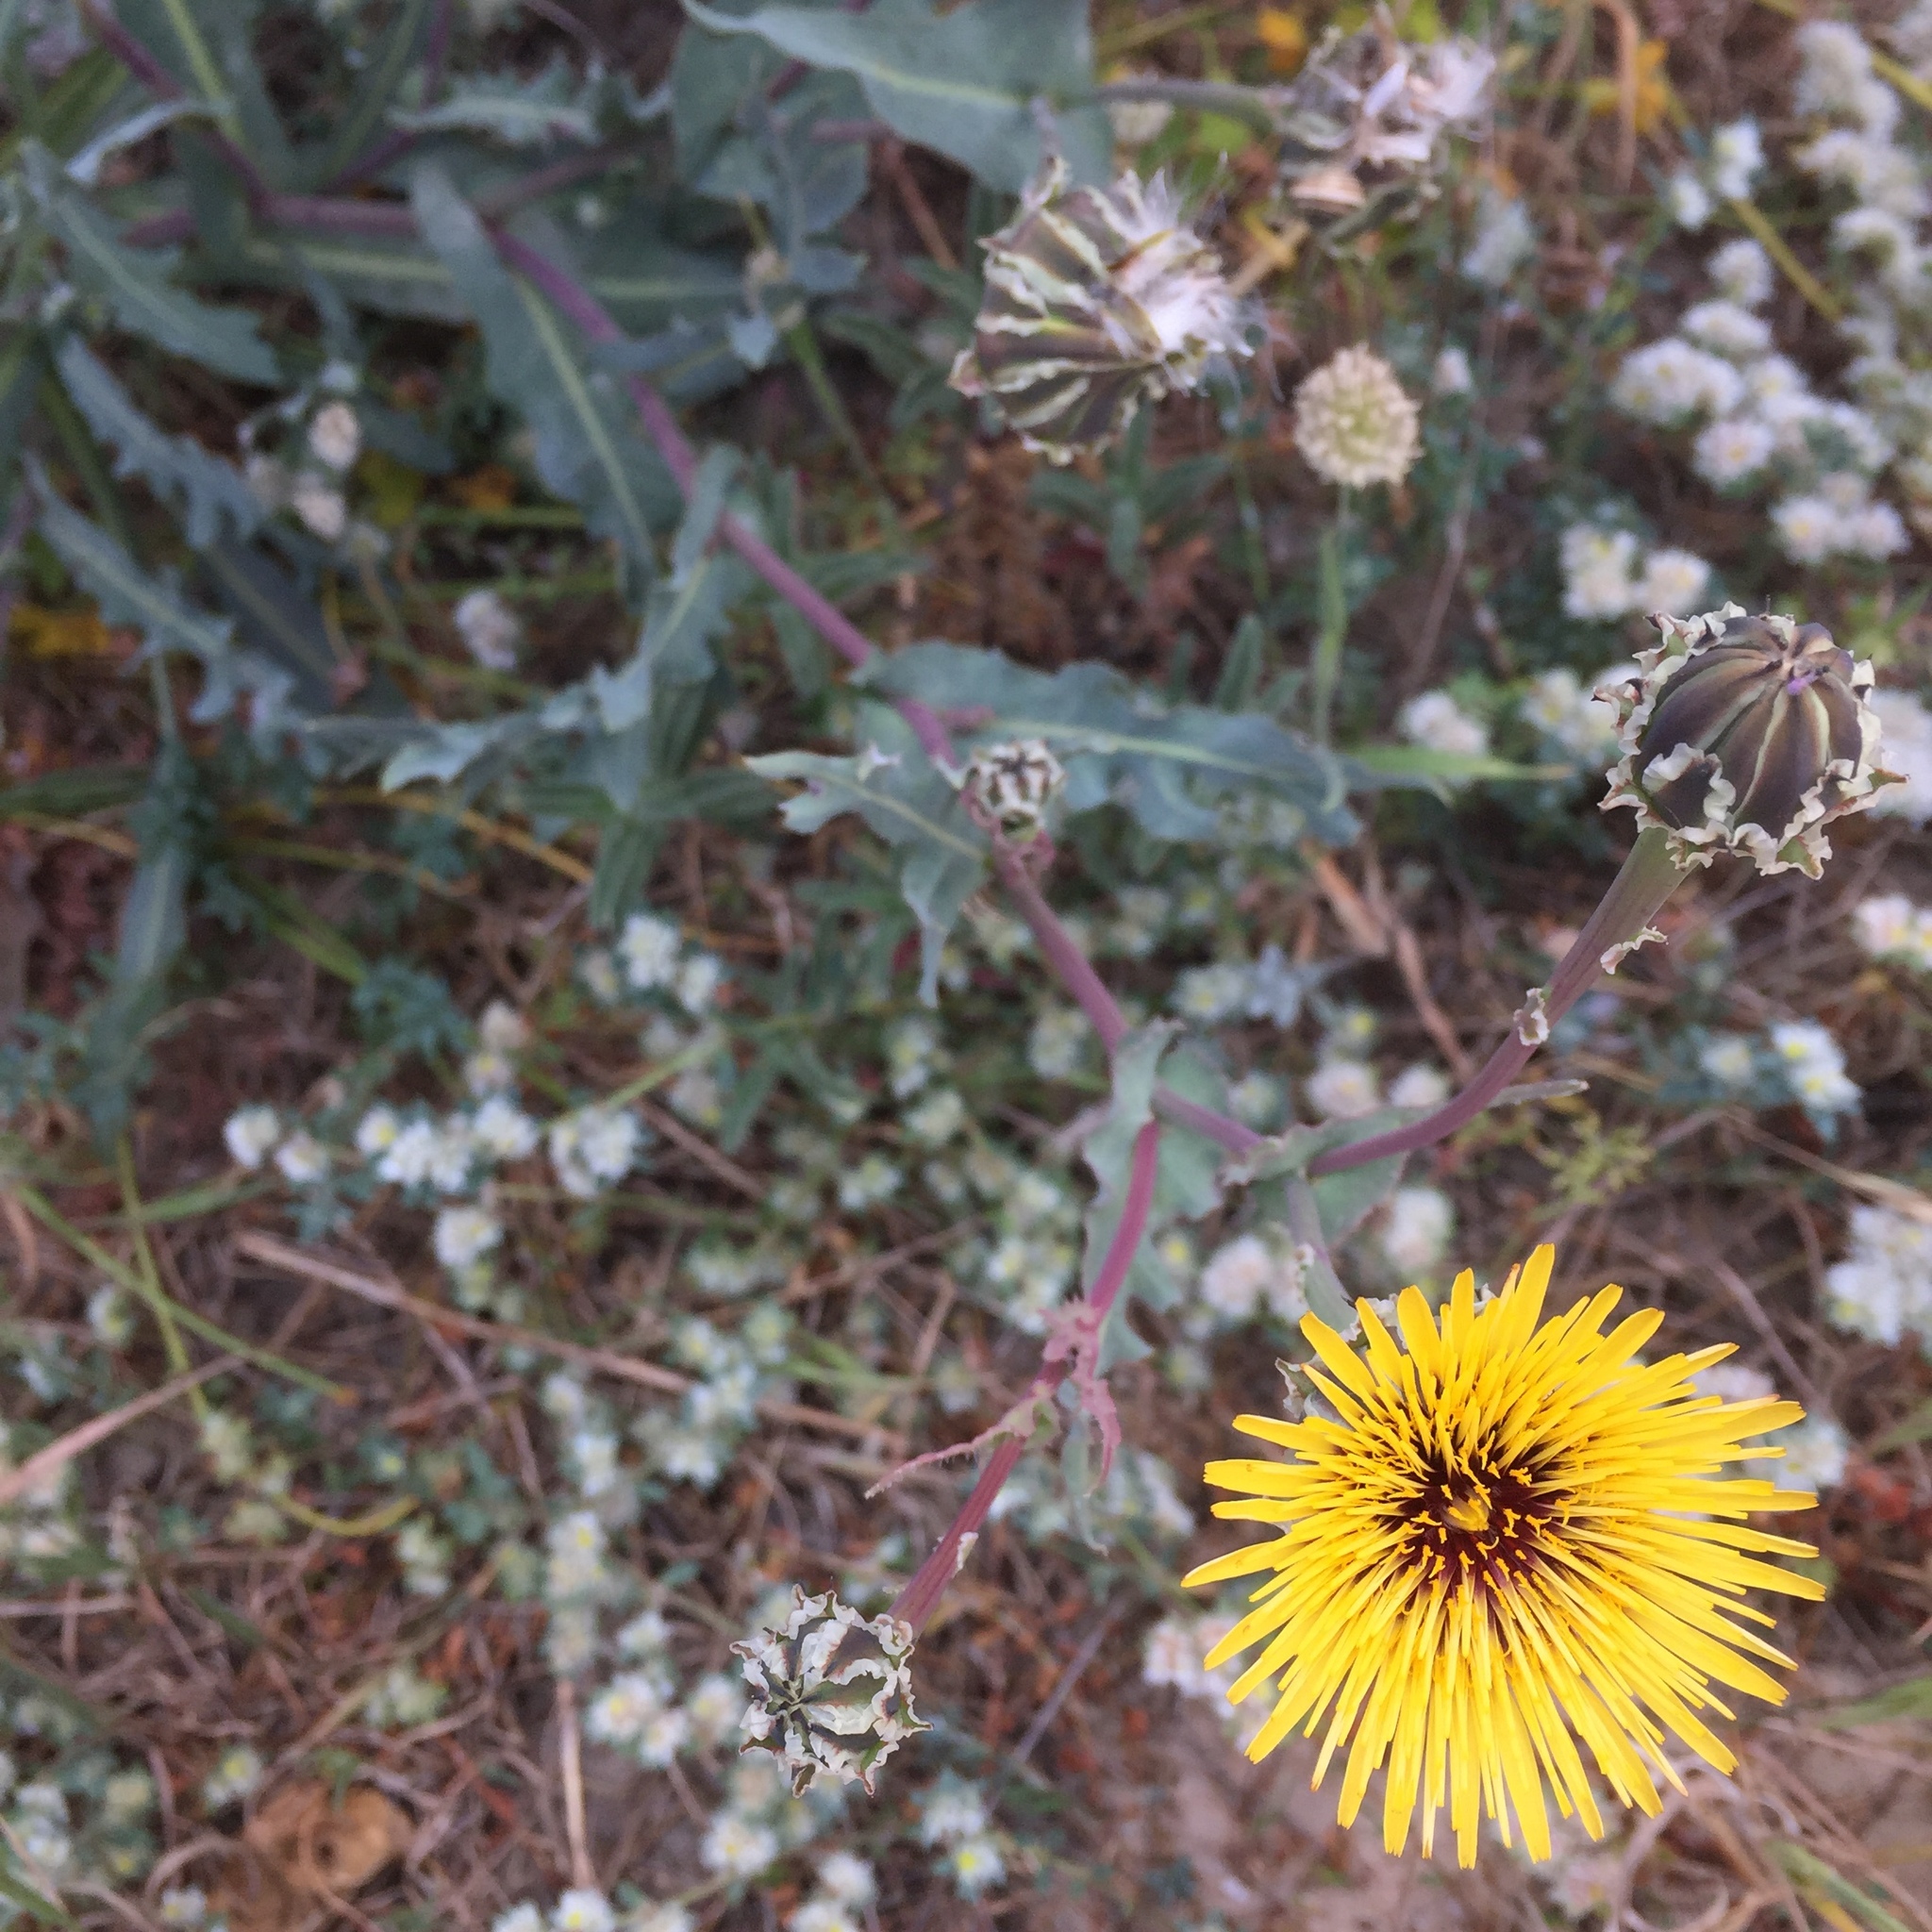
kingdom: Plantae
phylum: Tracheophyta
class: Magnoliopsida
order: Asterales
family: Asteraceae
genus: Reichardia
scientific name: Reichardia gaditana
